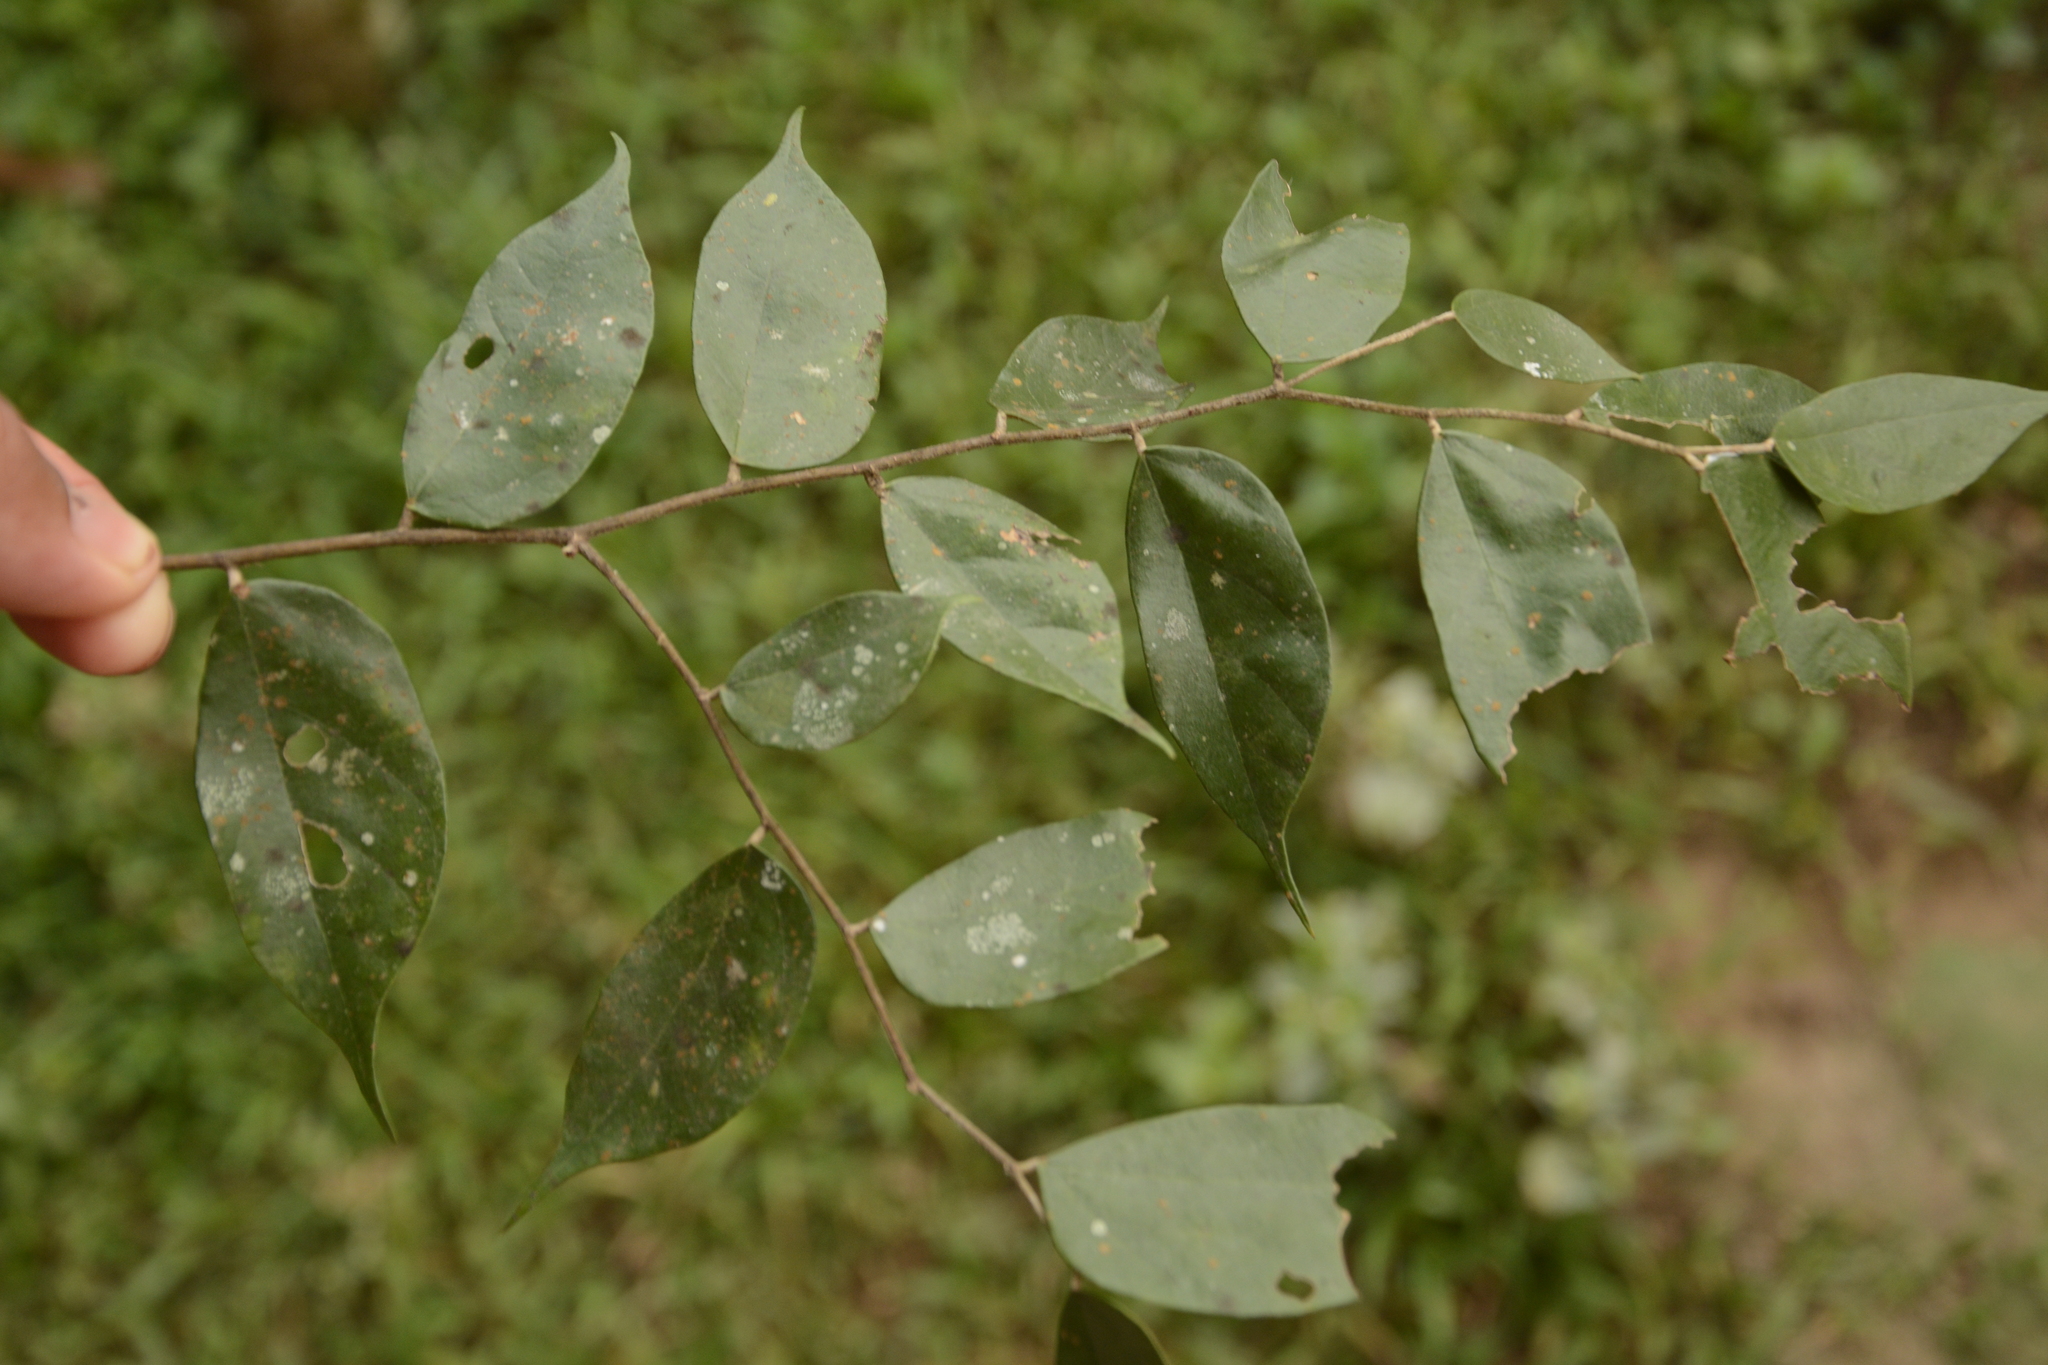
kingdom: Plantae
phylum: Tracheophyta
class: Magnoliopsida
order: Malvales
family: Malvaceae
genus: Pterospermum
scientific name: Pterospermum rubiginosum
